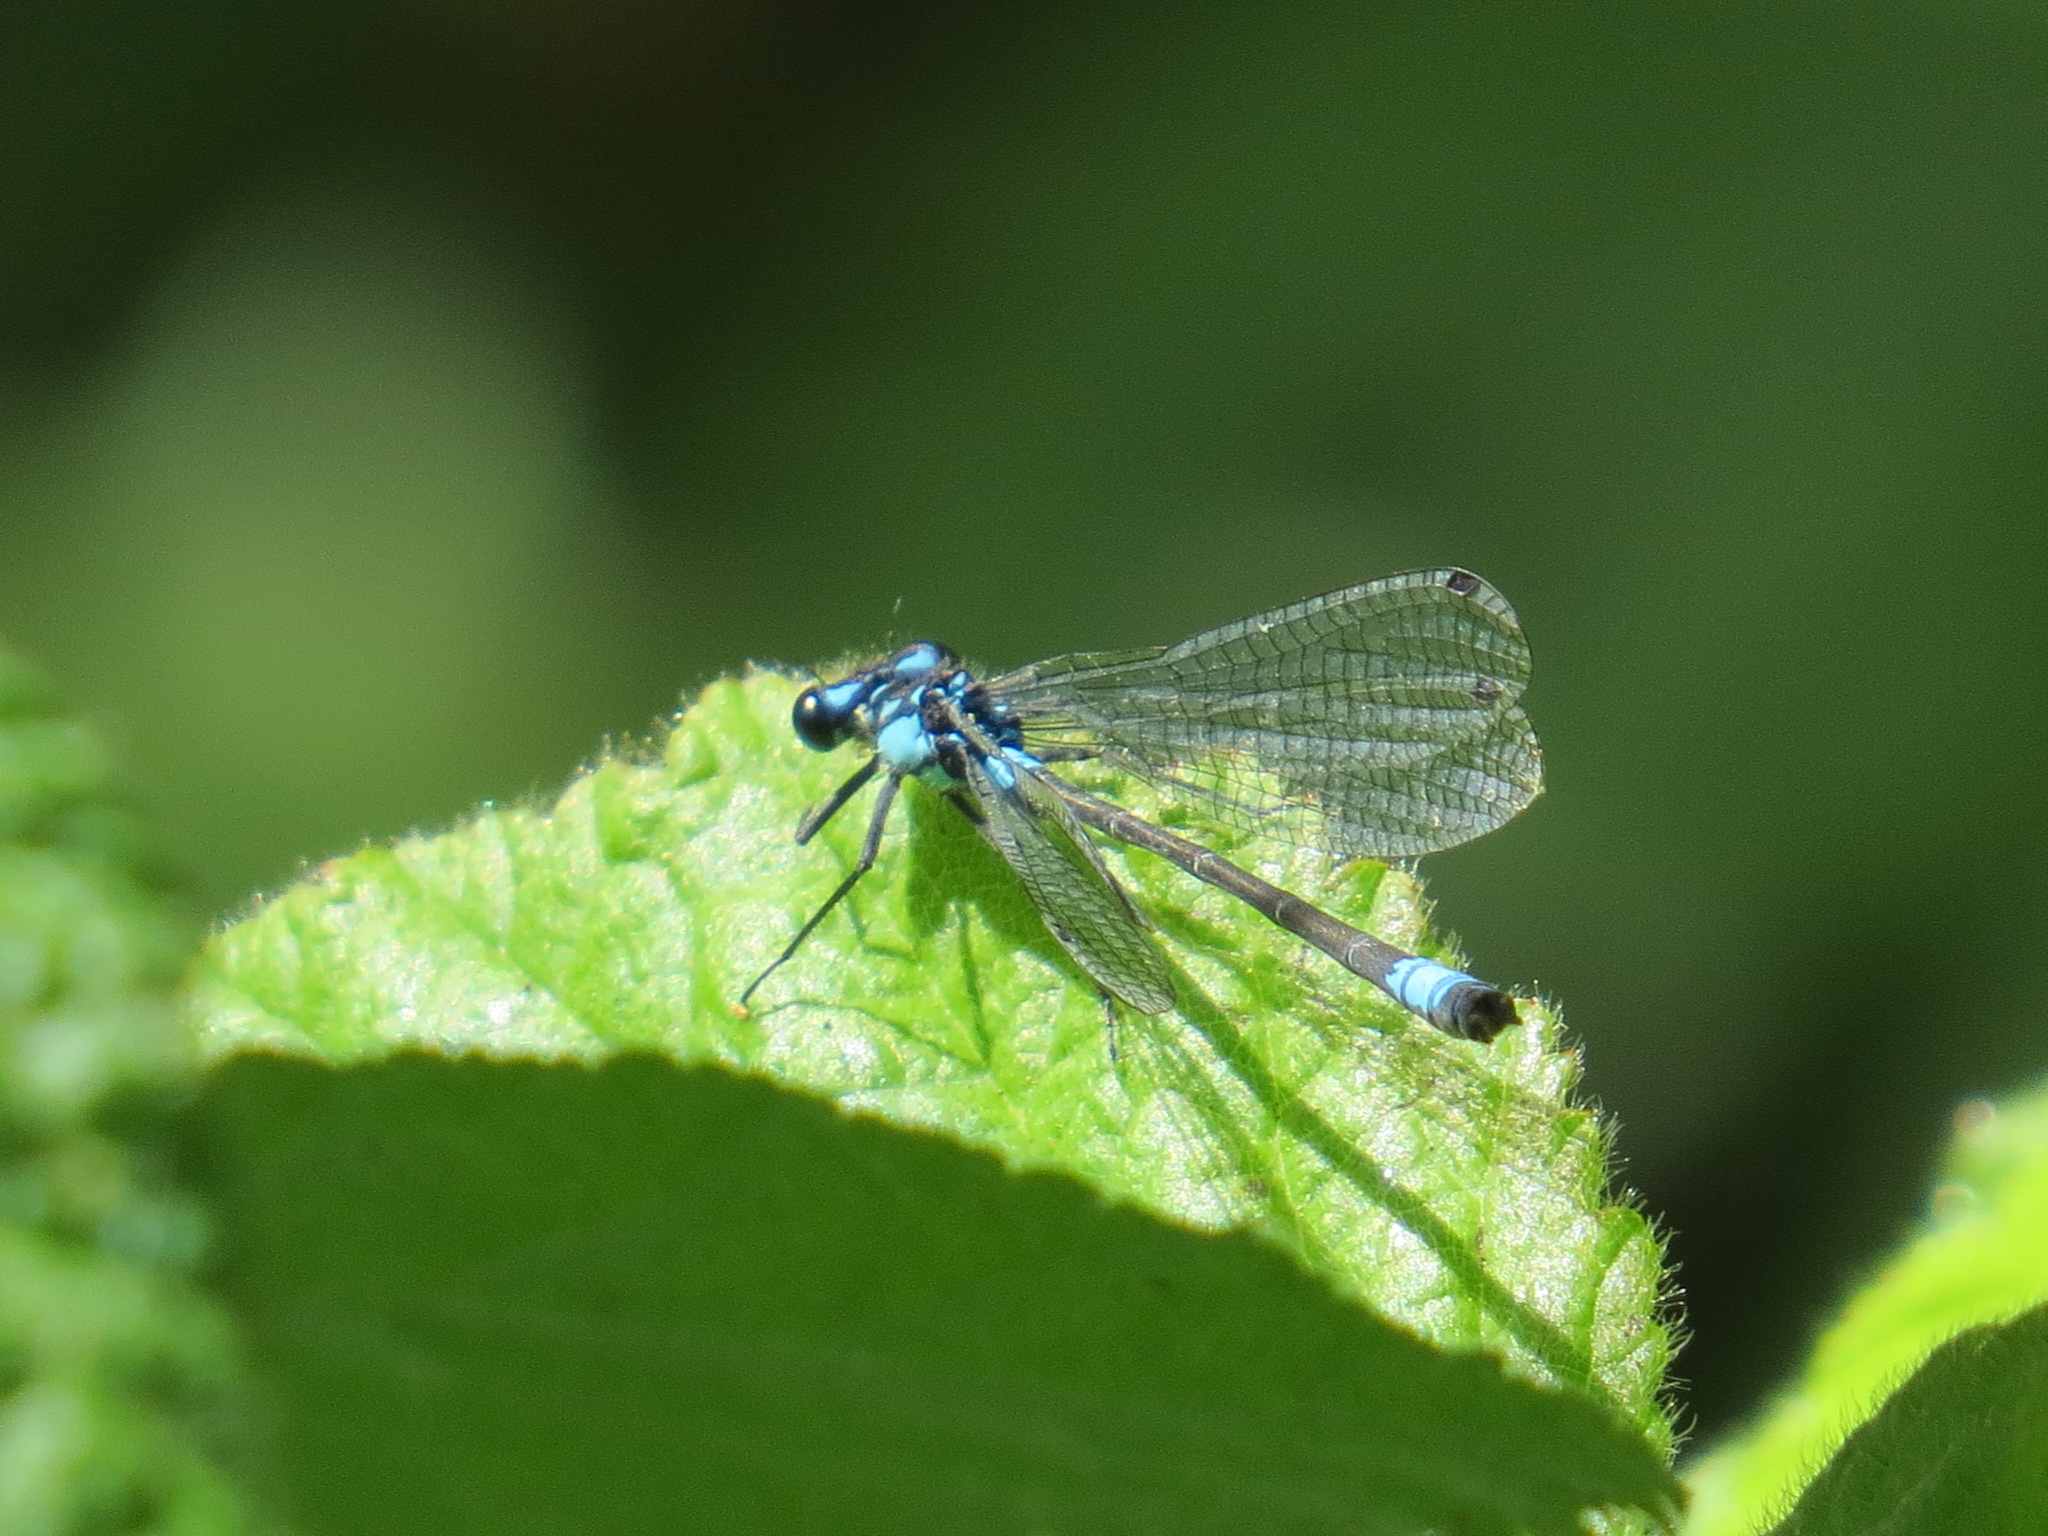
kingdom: Animalia
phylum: Arthropoda
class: Insecta
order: Odonata
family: Coenagrionidae
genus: Zoniagrion
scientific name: Zoniagrion exclamationis
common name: Exclamation damsel
